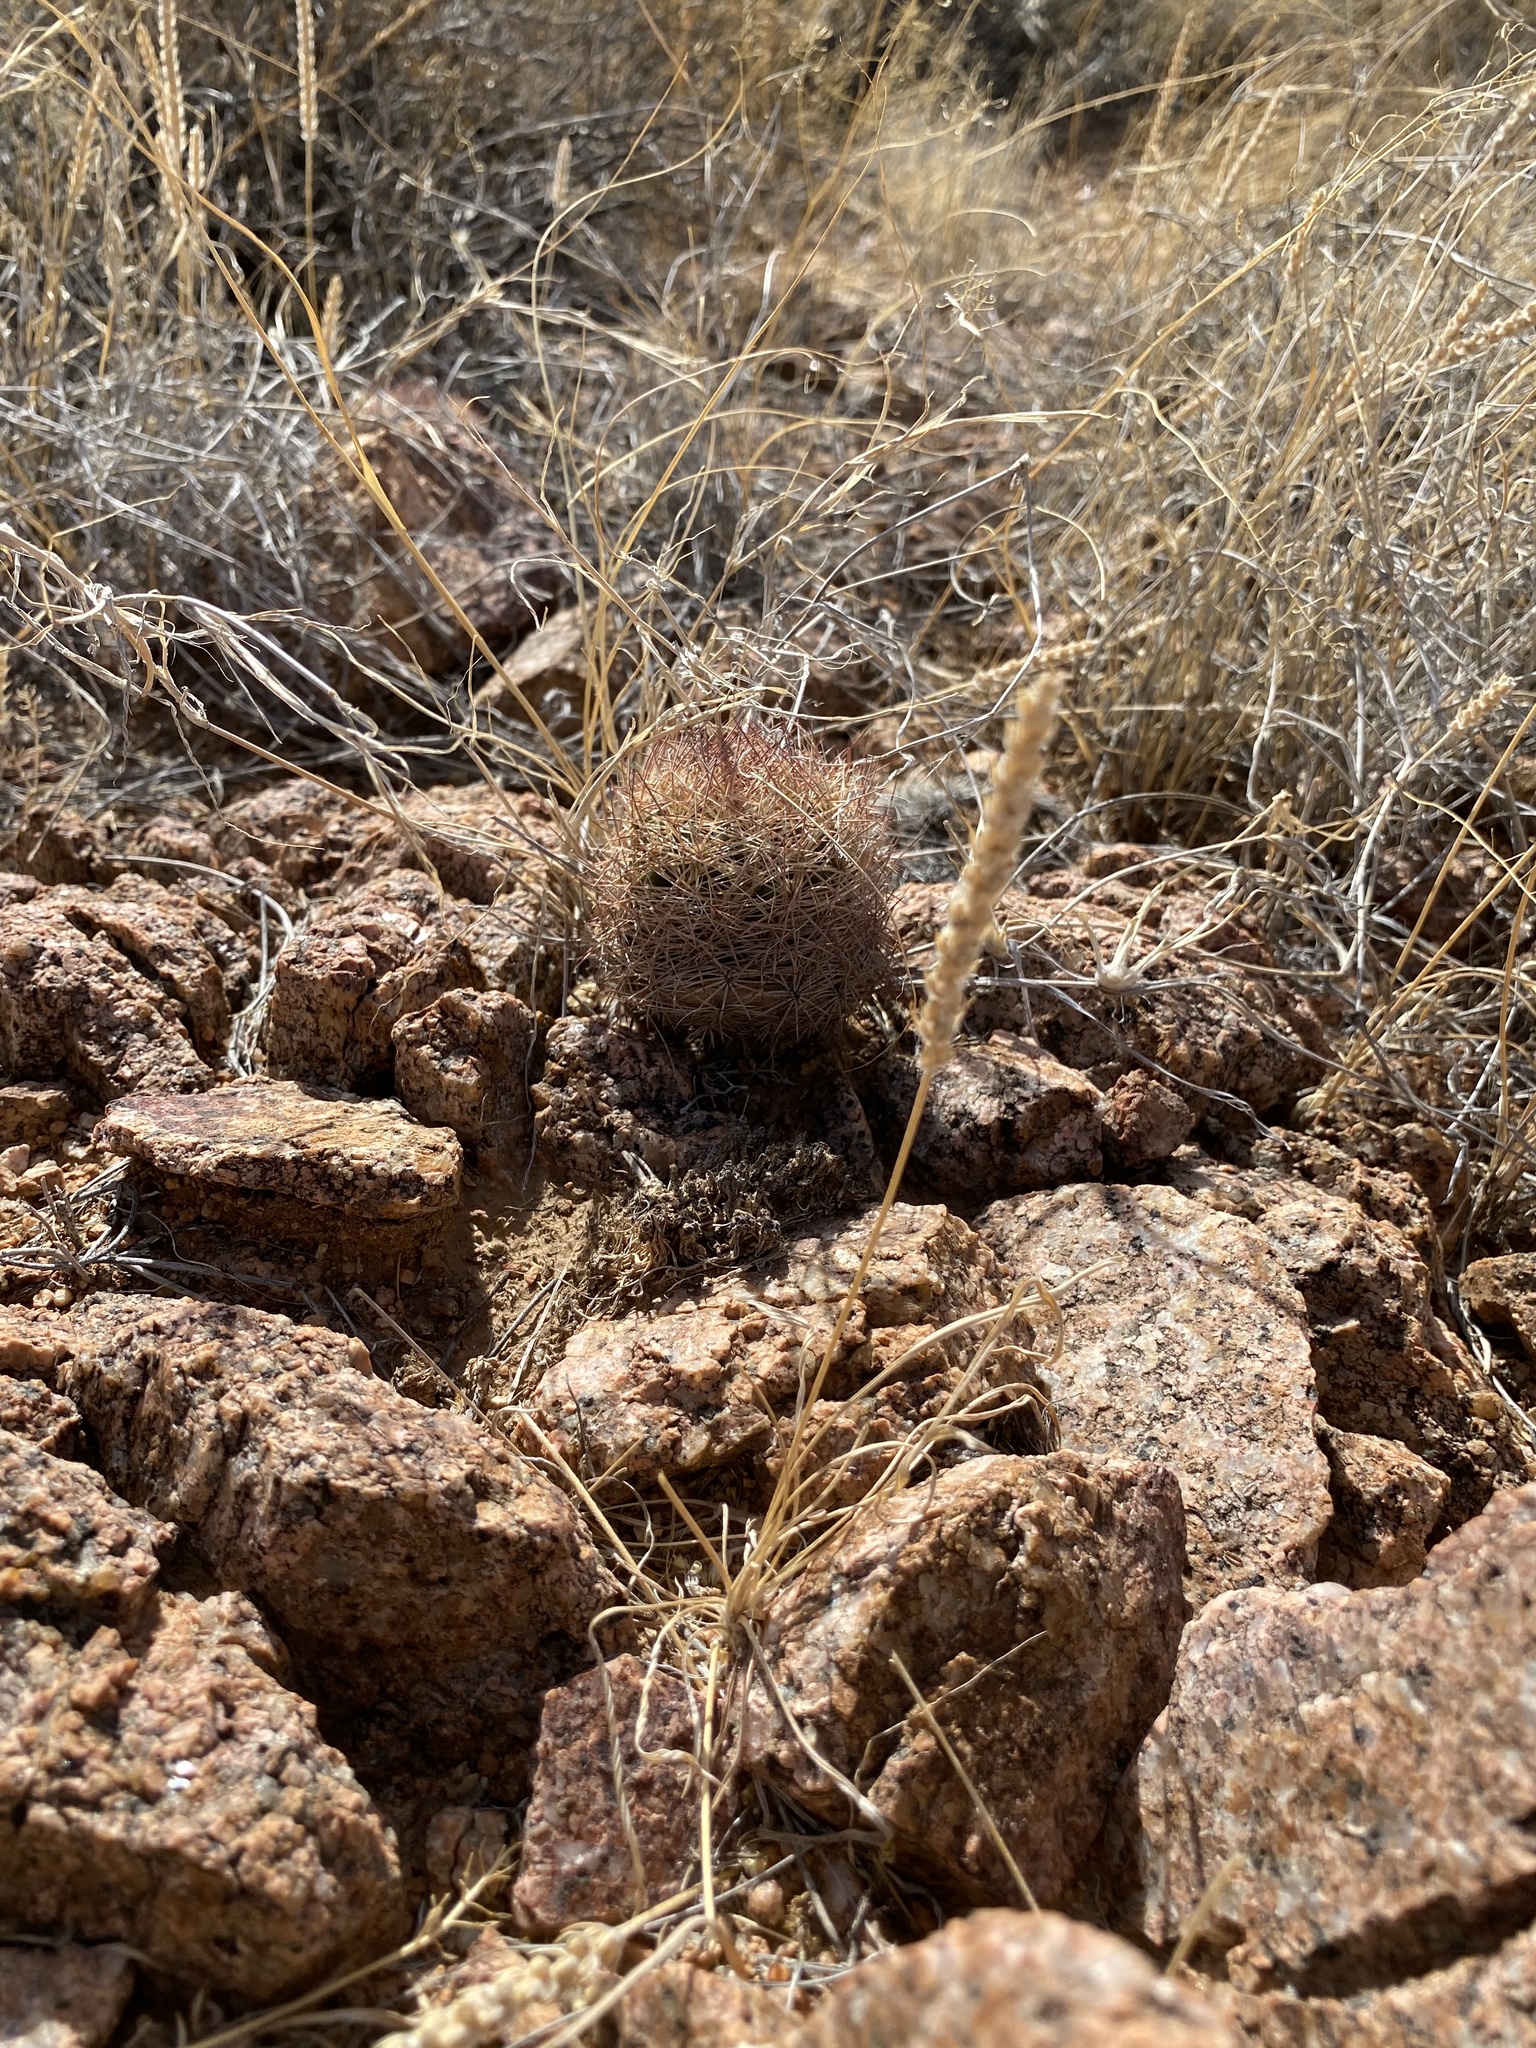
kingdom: Plantae
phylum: Tracheophyta
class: Magnoliopsida
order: Caryophyllales
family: Cactaceae
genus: Sclerocactus
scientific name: Sclerocactus intertextus
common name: White fish-hook cactus
